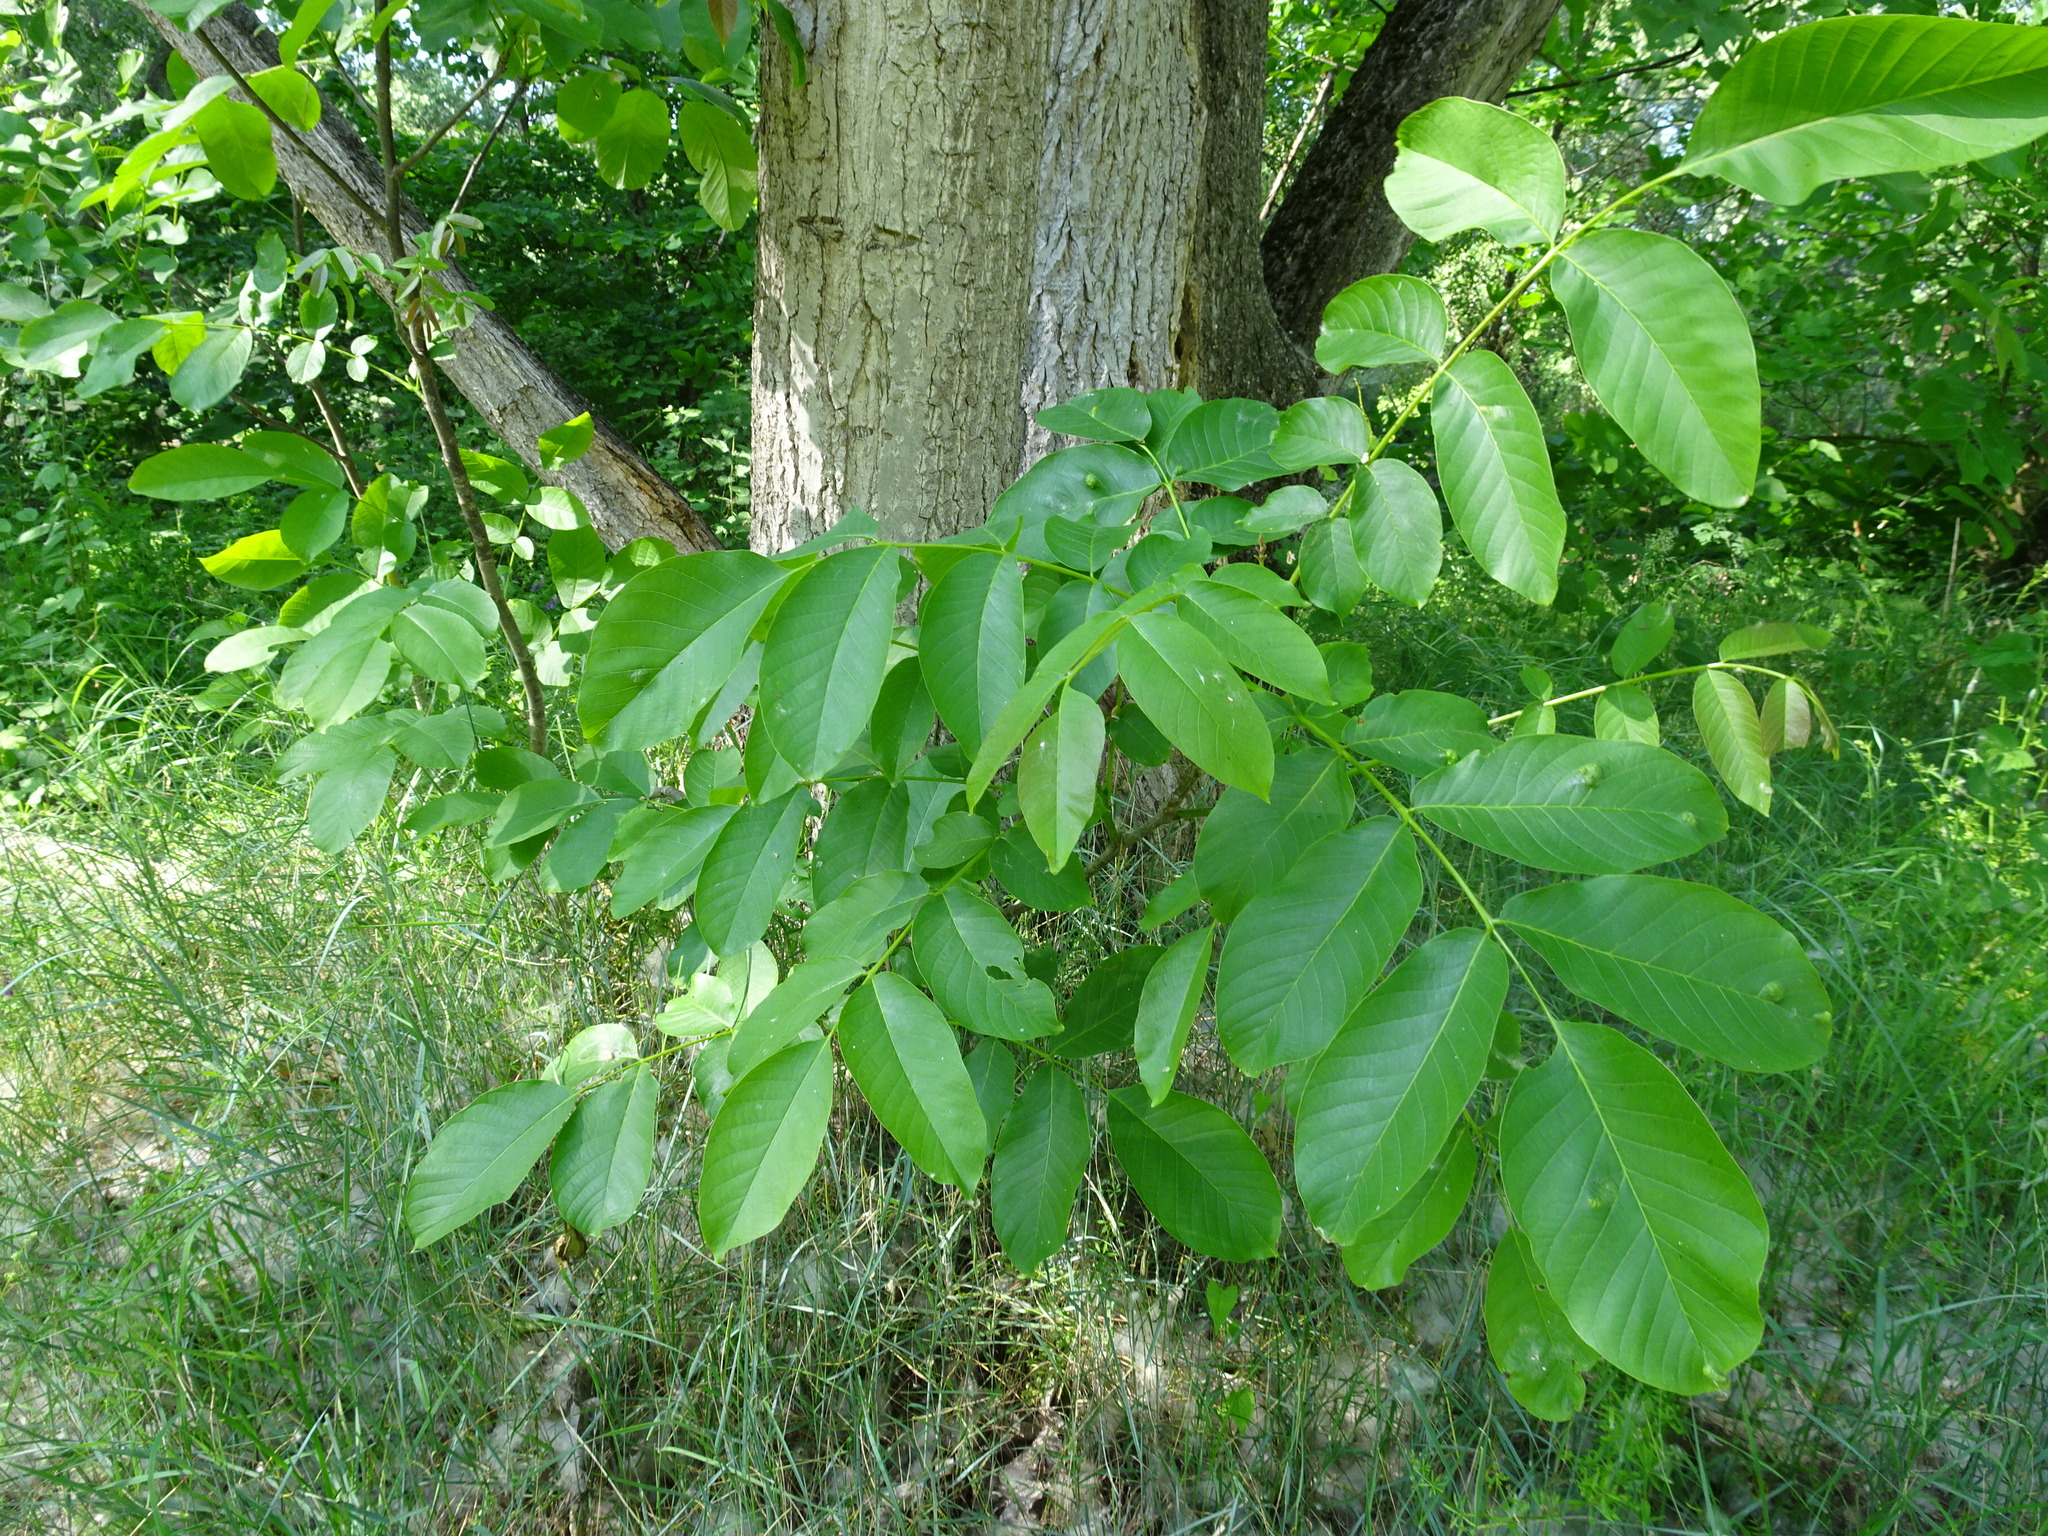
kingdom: Plantae
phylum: Tracheophyta
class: Magnoliopsida
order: Fagales
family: Juglandaceae
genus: Juglans
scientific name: Juglans regia
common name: Walnut
